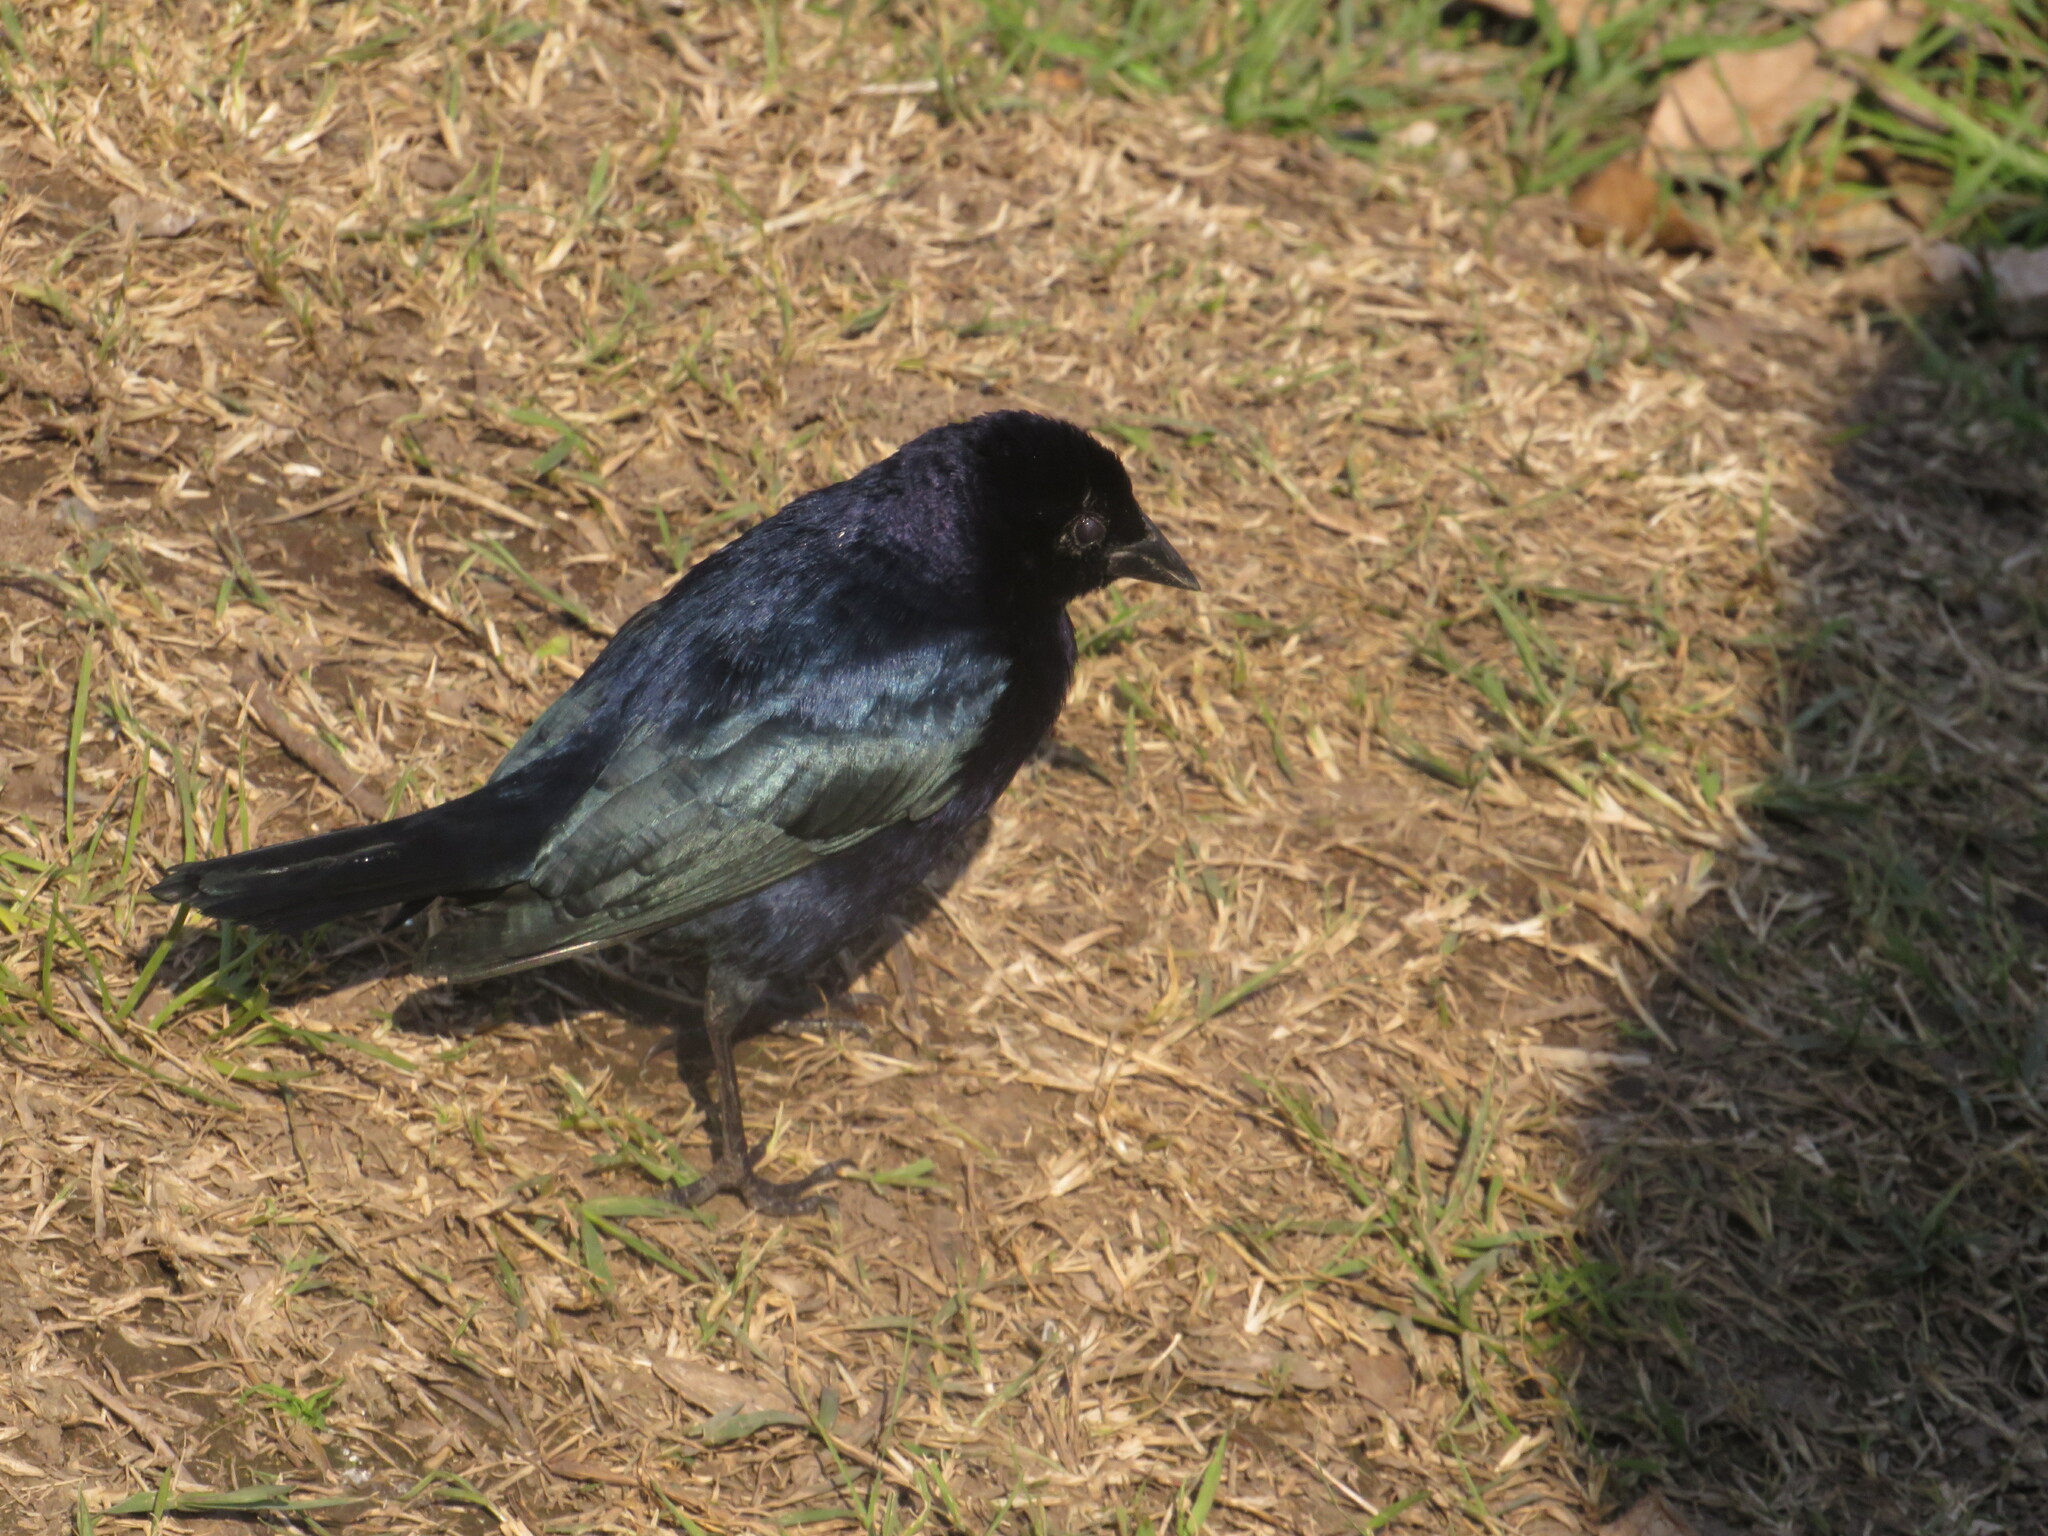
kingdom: Animalia
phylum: Chordata
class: Aves
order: Passeriformes
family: Icteridae
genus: Molothrus
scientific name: Molothrus bonariensis
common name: Shiny cowbird
